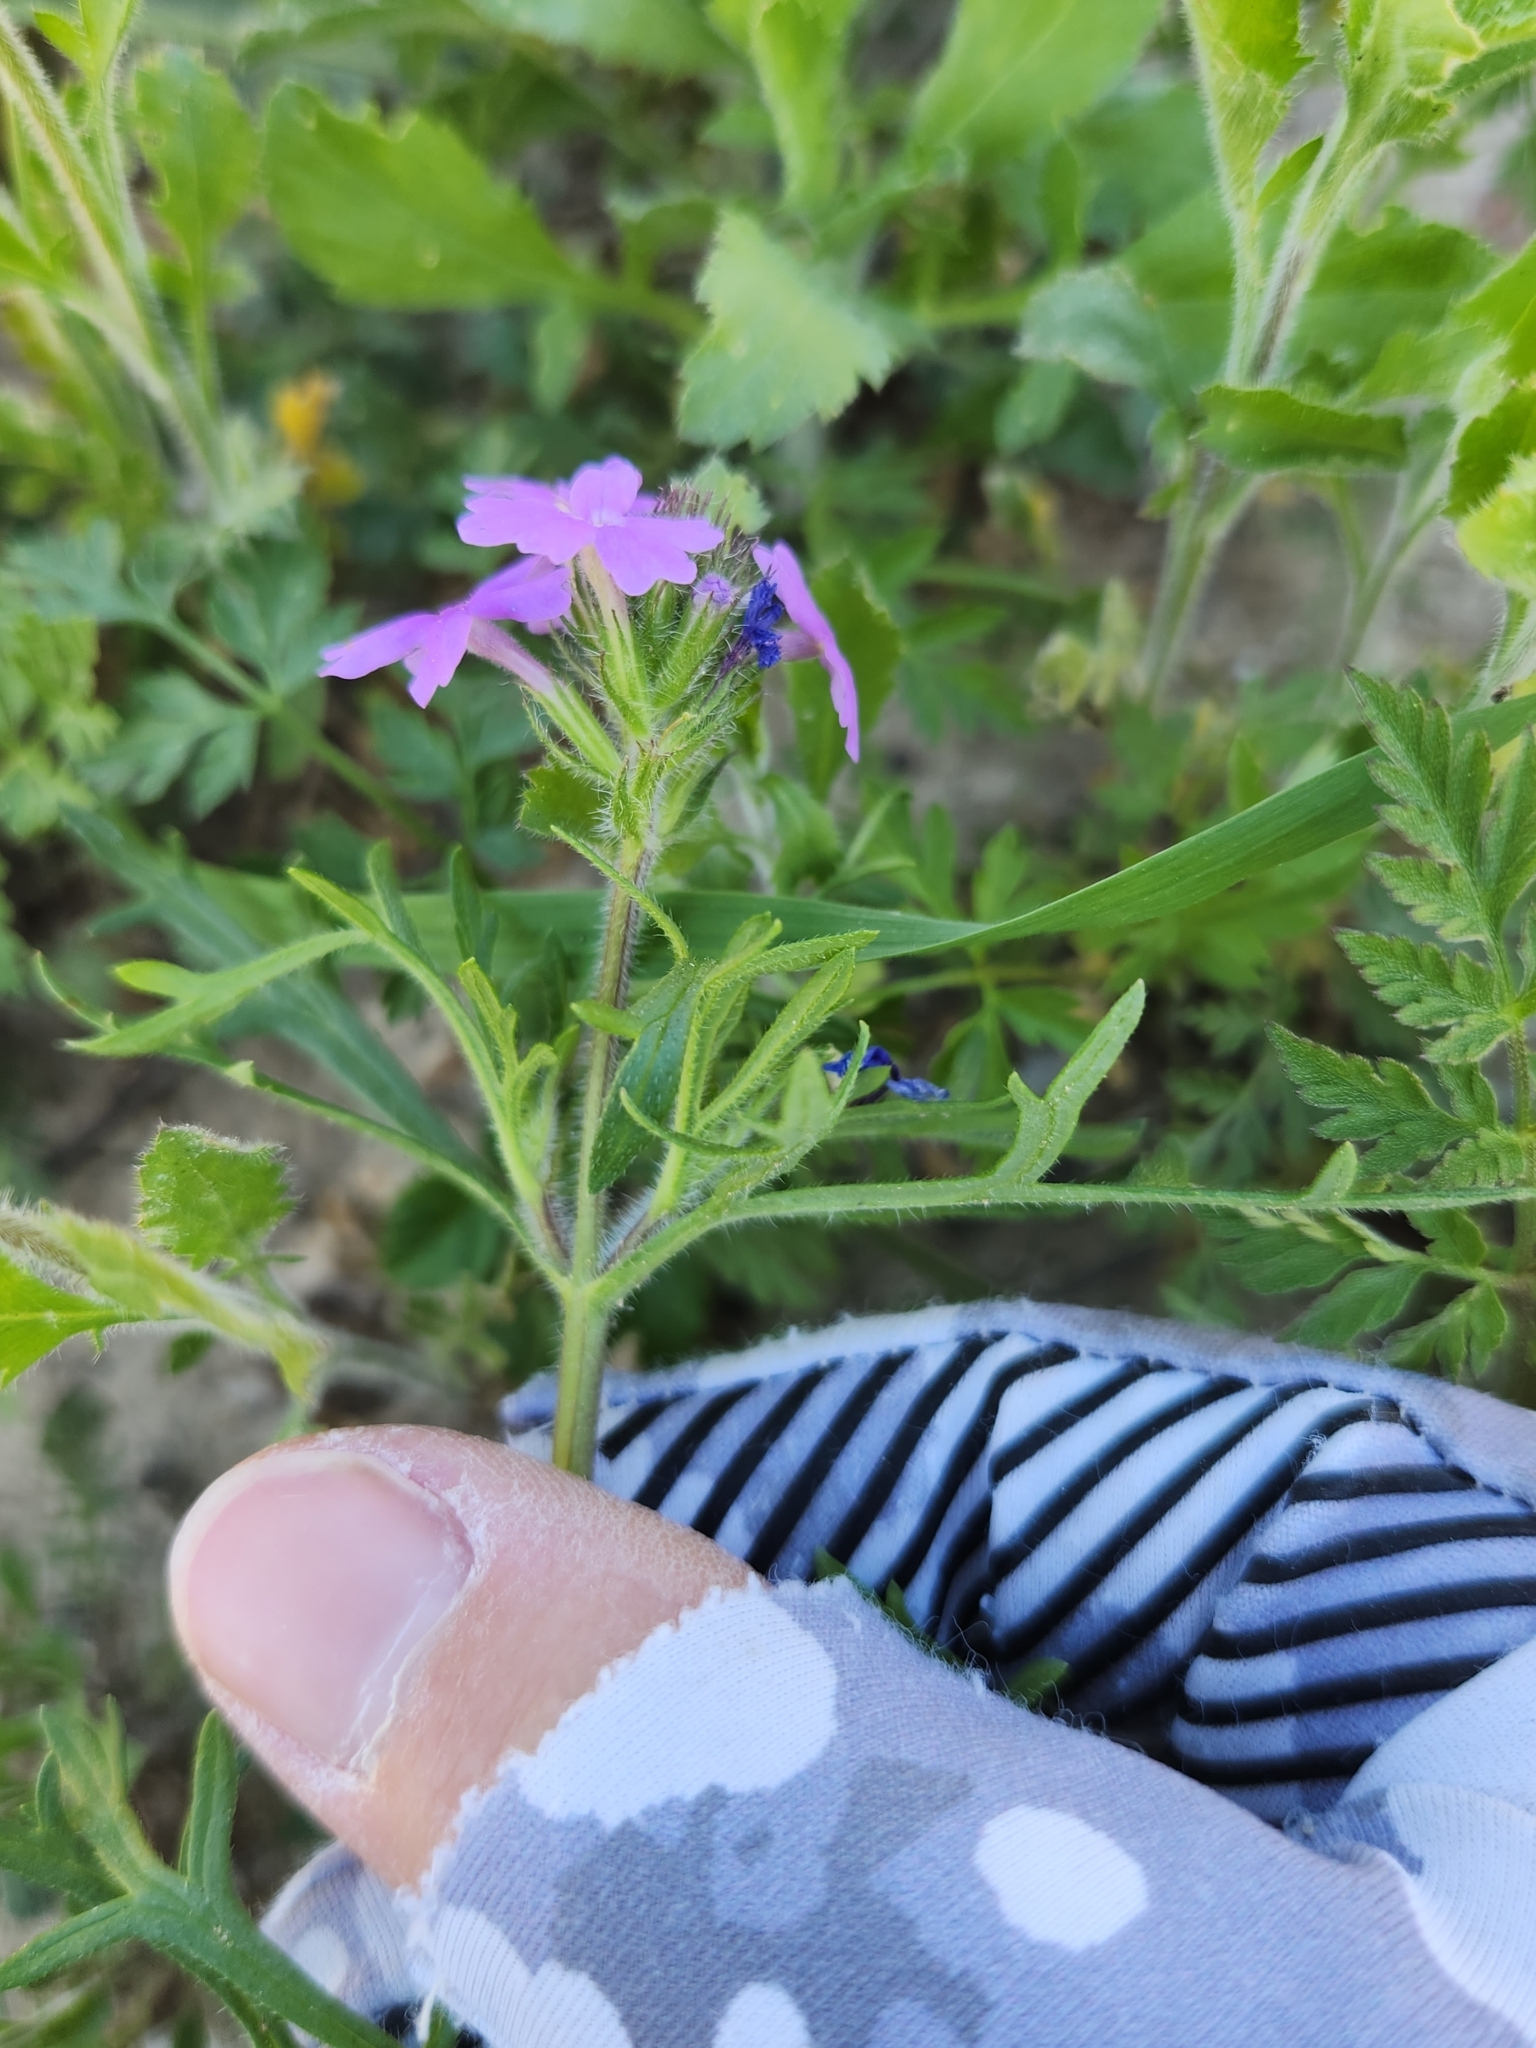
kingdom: Plantae
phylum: Tracheophyta
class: Magnoliopsida
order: Lamiales
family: Verbenaceae
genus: Verbena
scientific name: Verbena bipinnatifida
